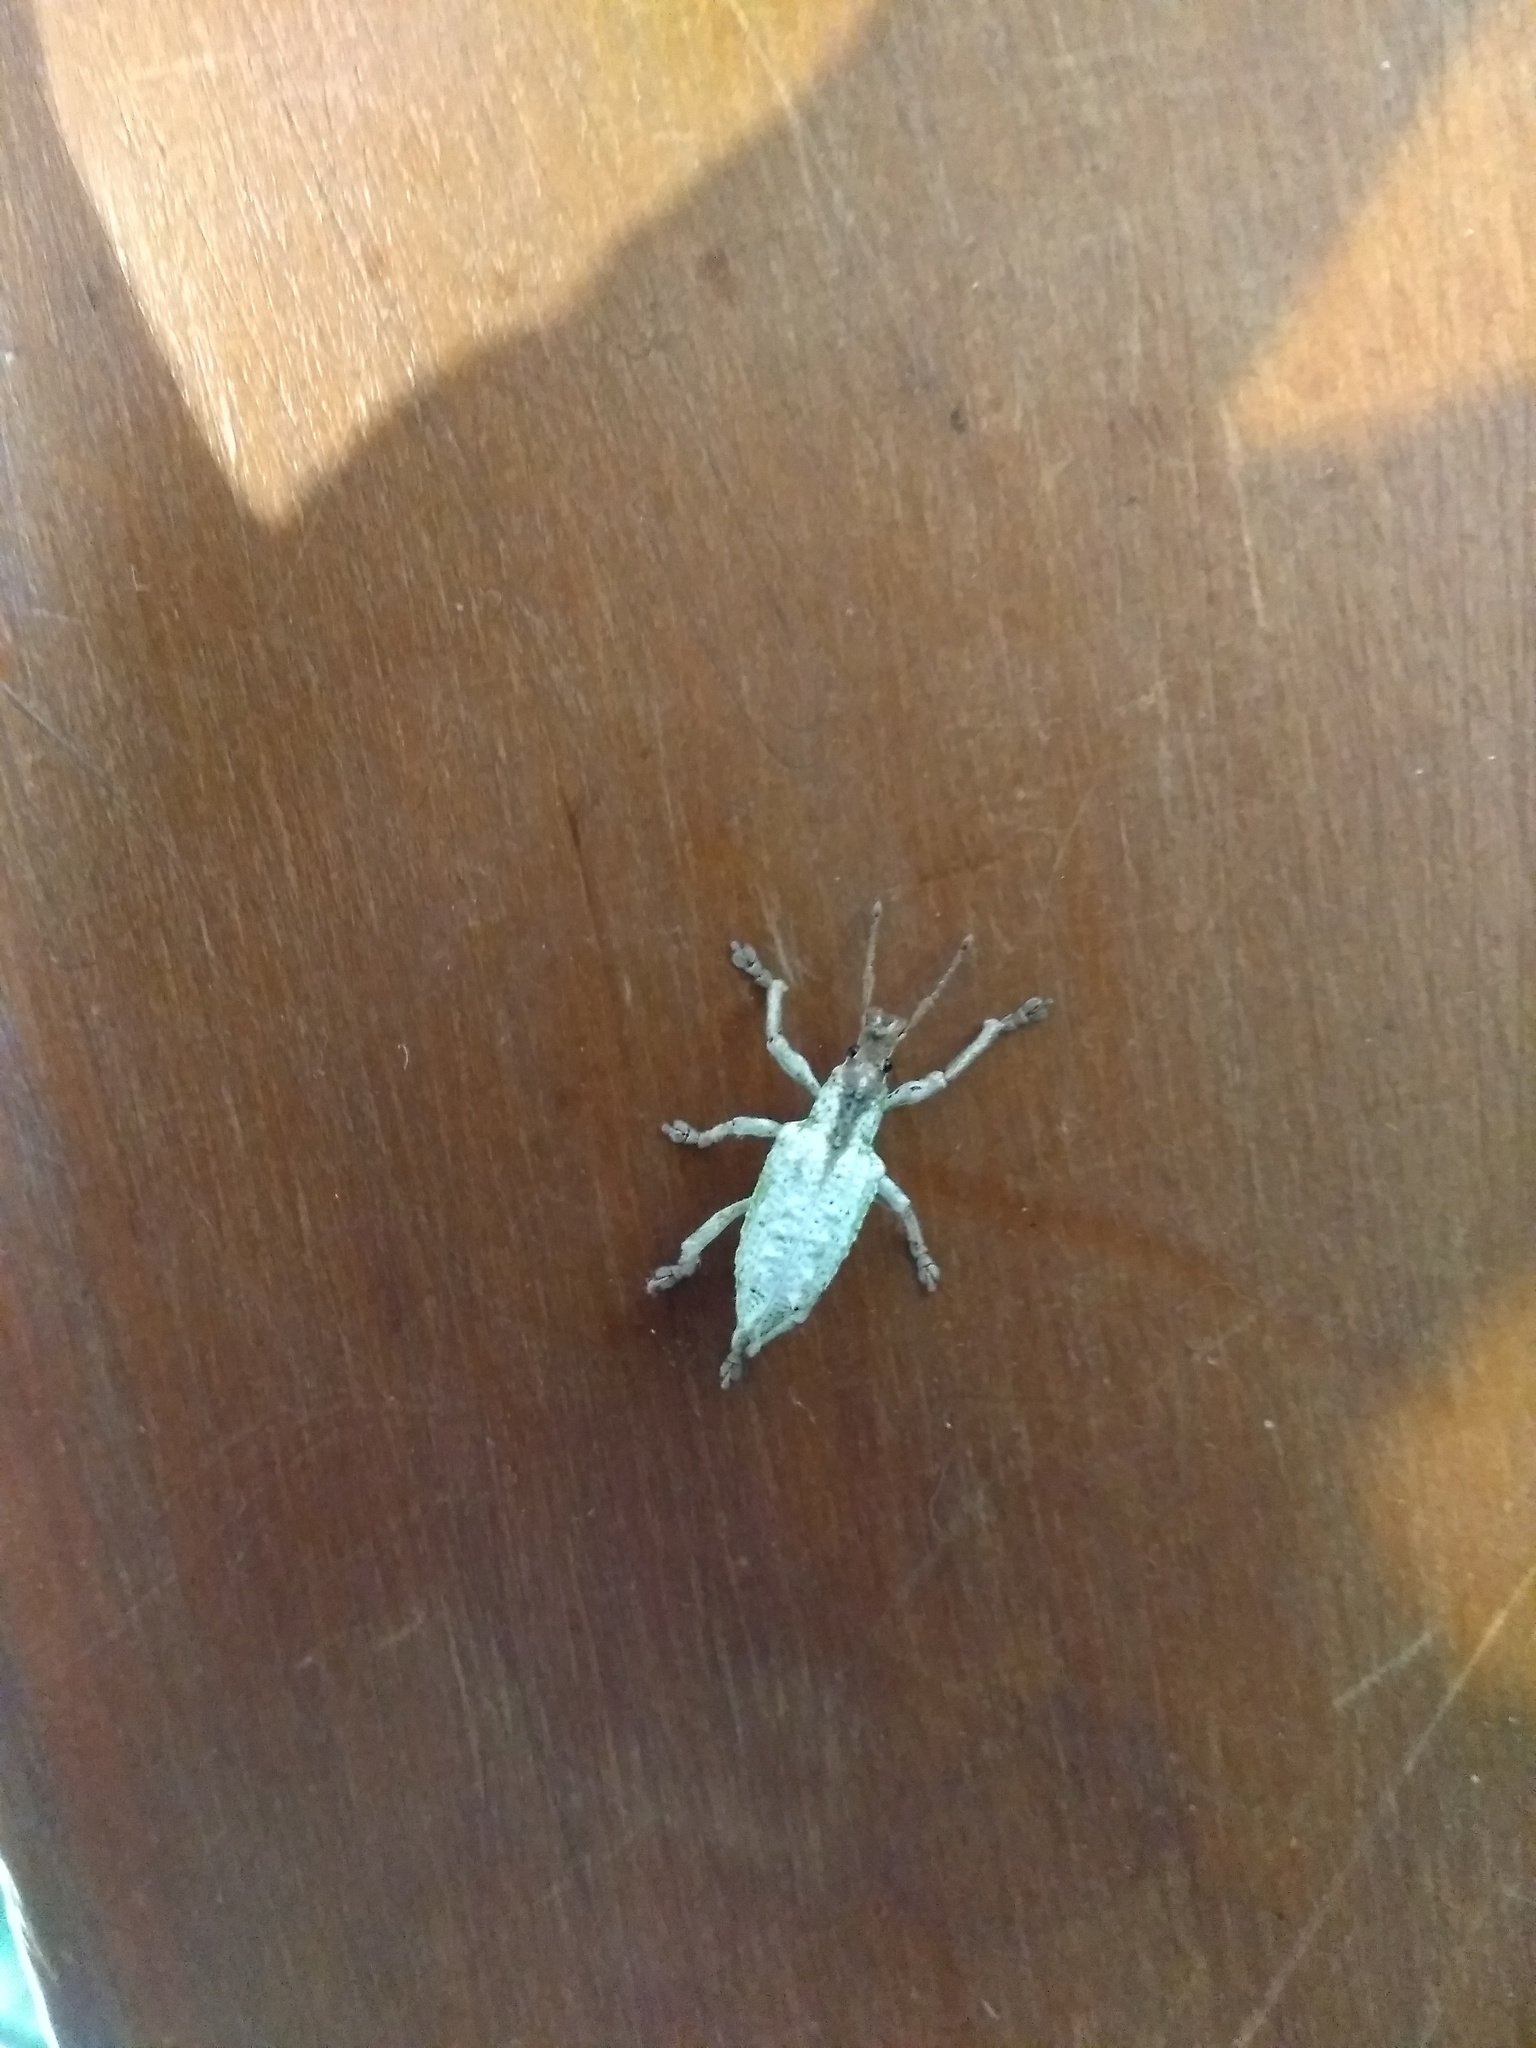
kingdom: Animalia
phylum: Arthropoda
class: Insecta
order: Coleoptera
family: Curculionidae
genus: Compsus
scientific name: Compsus niveus
